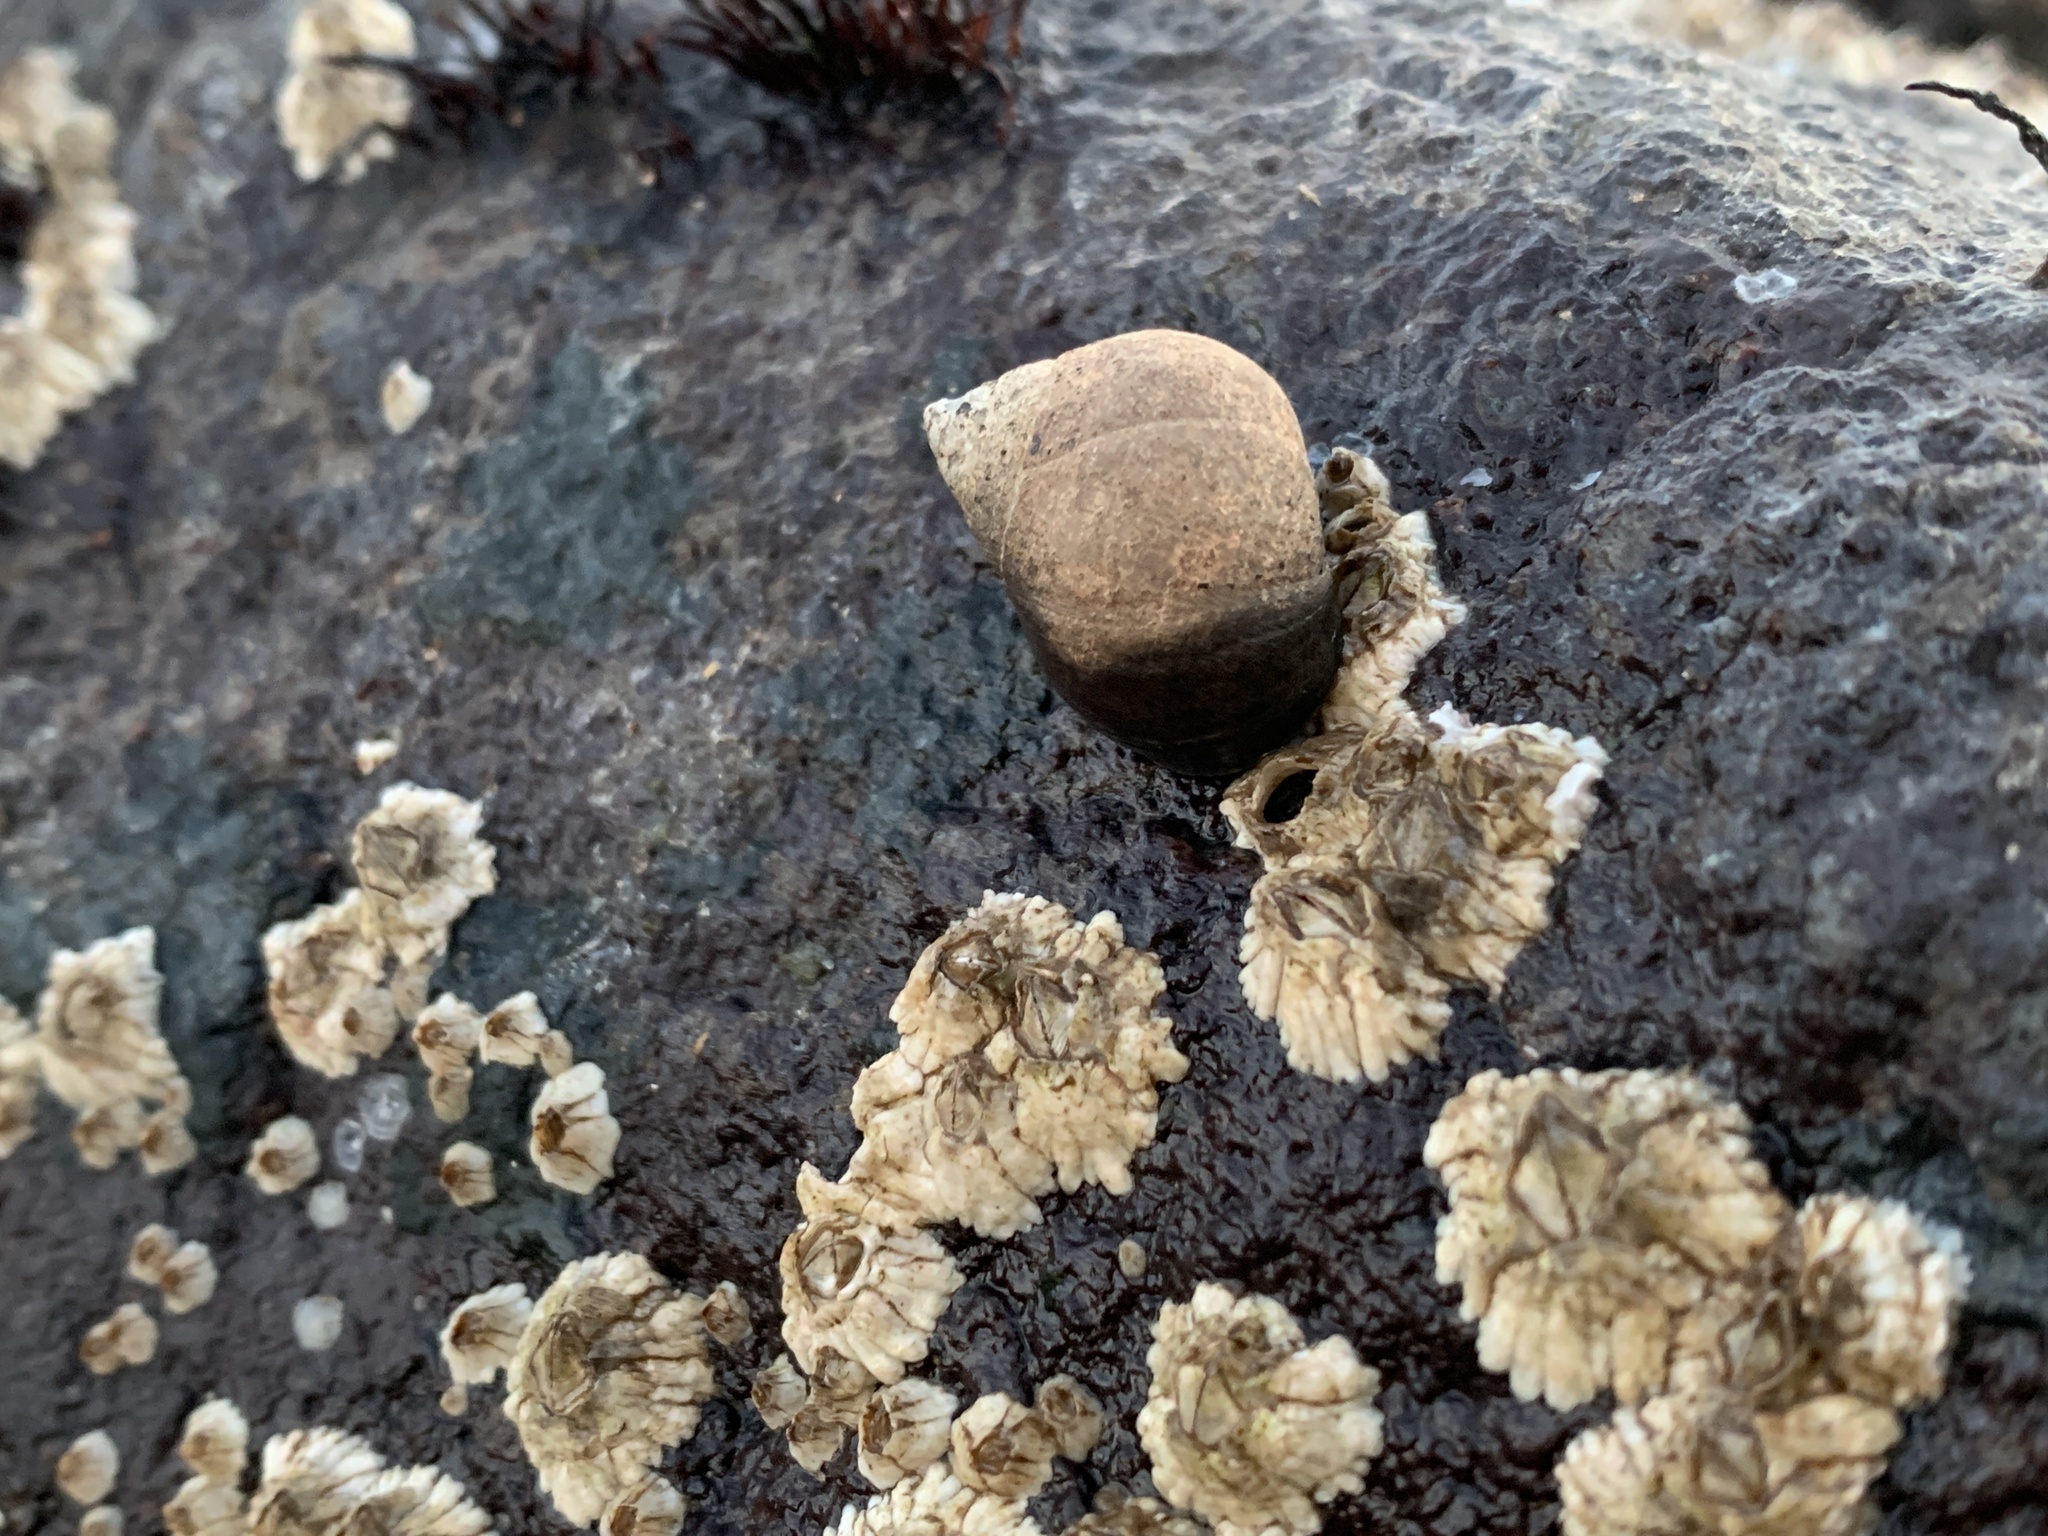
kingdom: Animalia
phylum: Mollusca
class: Gastropoda
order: Littorinimorpha
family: Littorinidae
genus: Littorina
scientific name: Littorina littorea
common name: Common periwinkle
